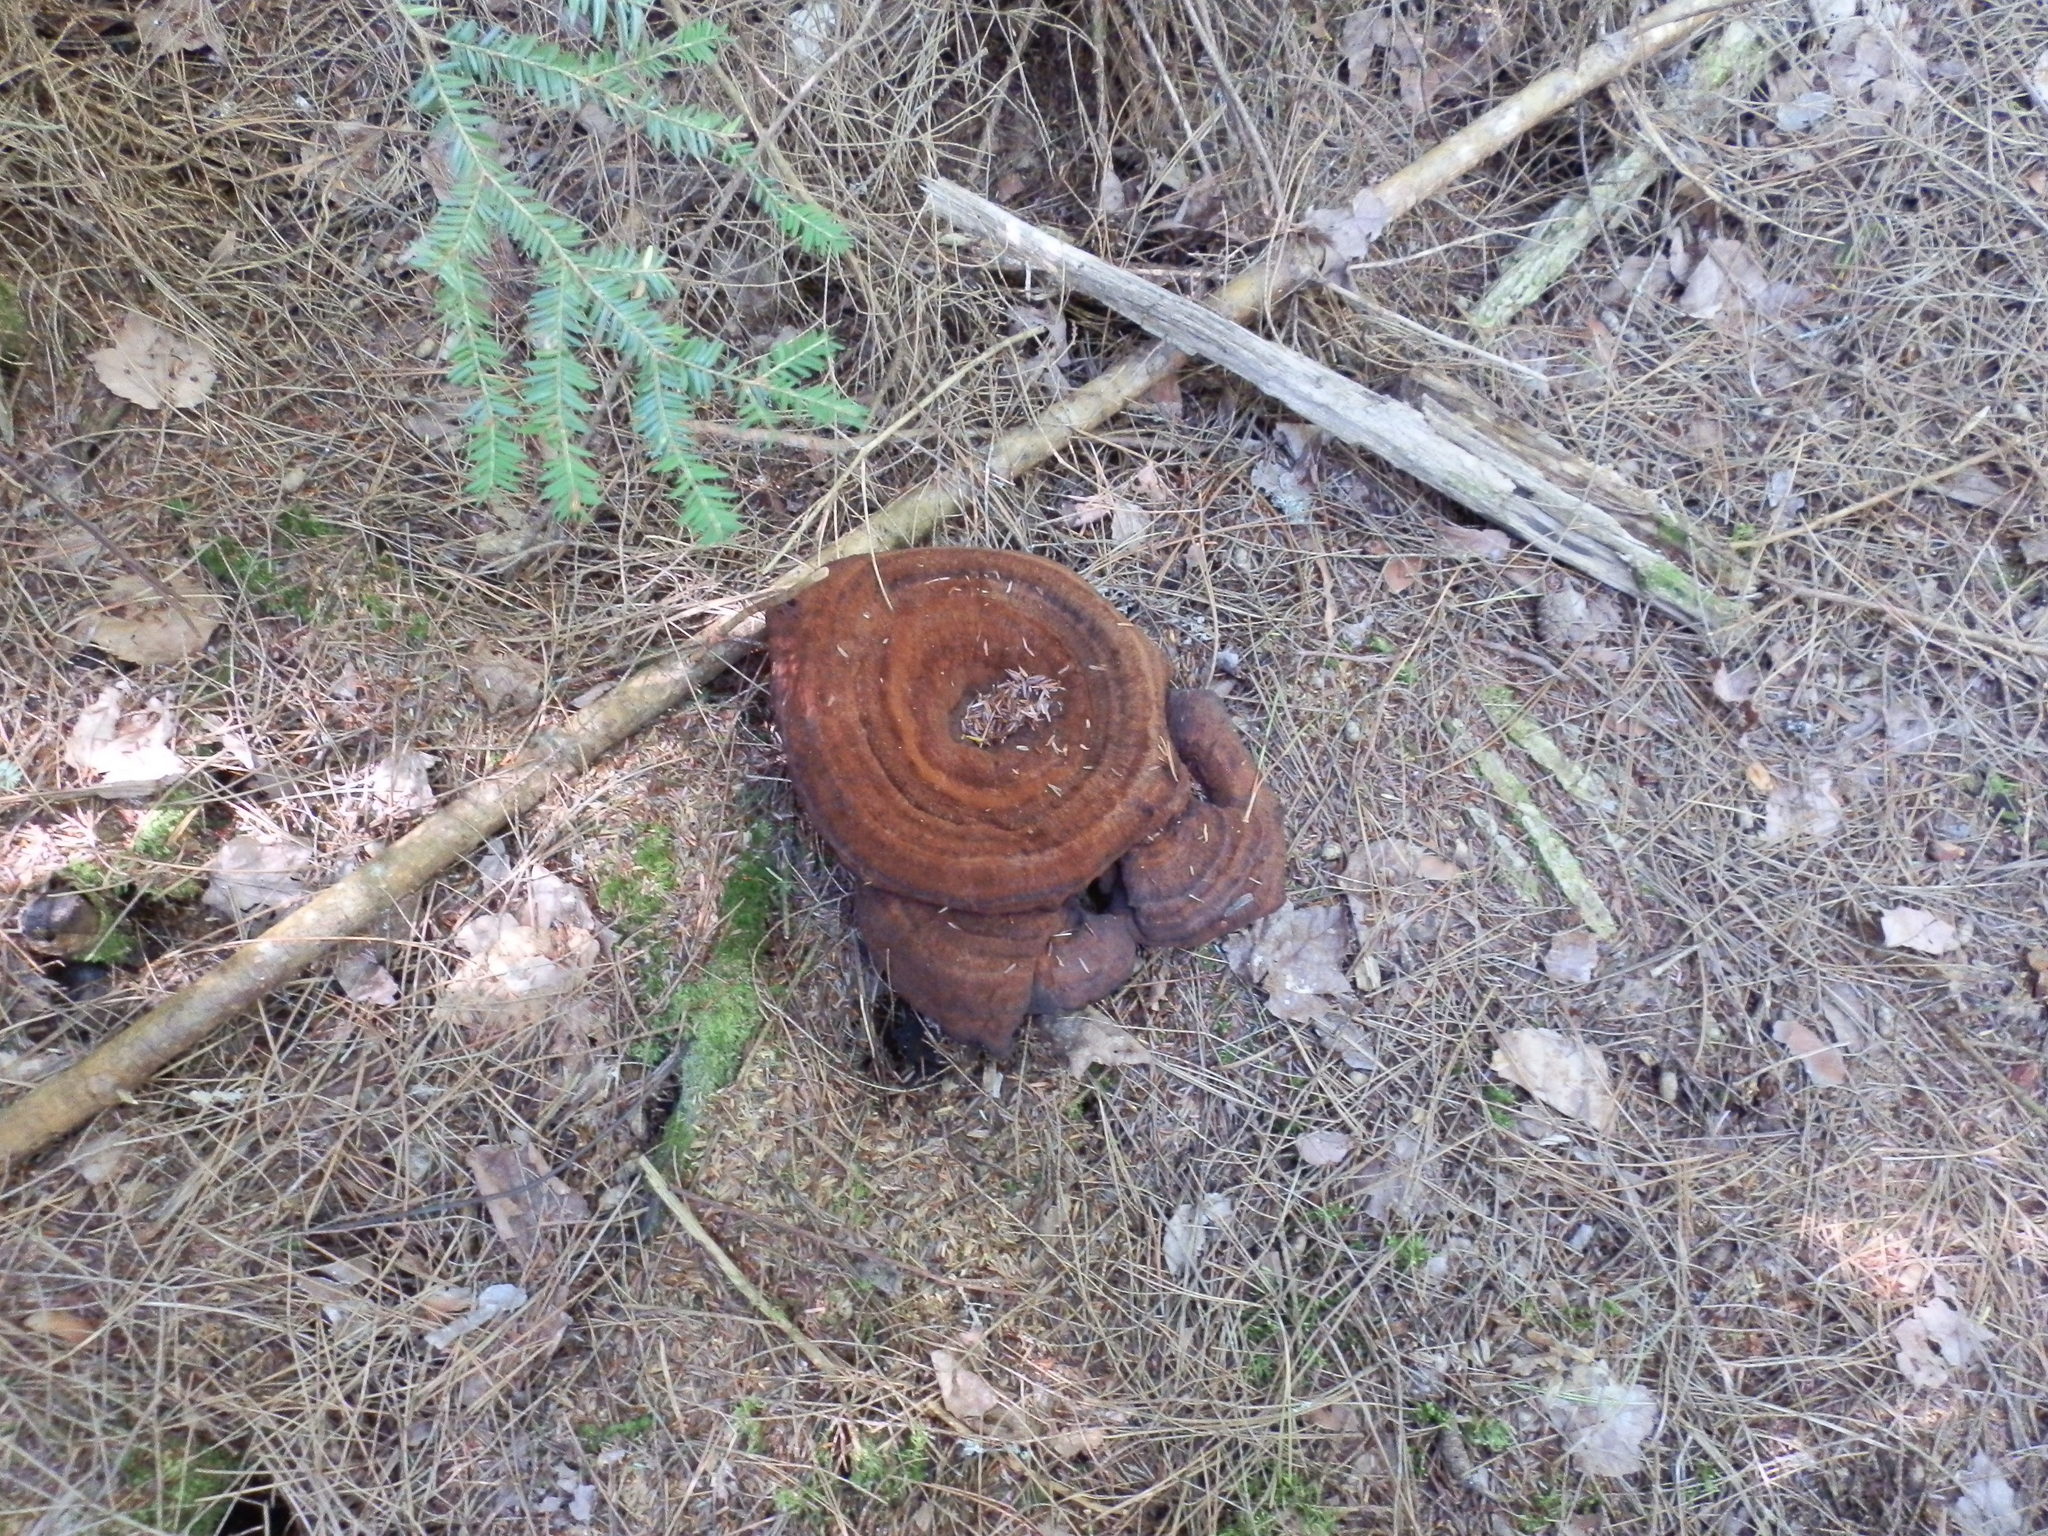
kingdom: Fungi
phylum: Basidiomycota
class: Agaricomycetes
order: Polyporales
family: Laetiporaceae
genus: Phaeolus
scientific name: Phaeolus schweinitzii
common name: Dyer's mazegill
